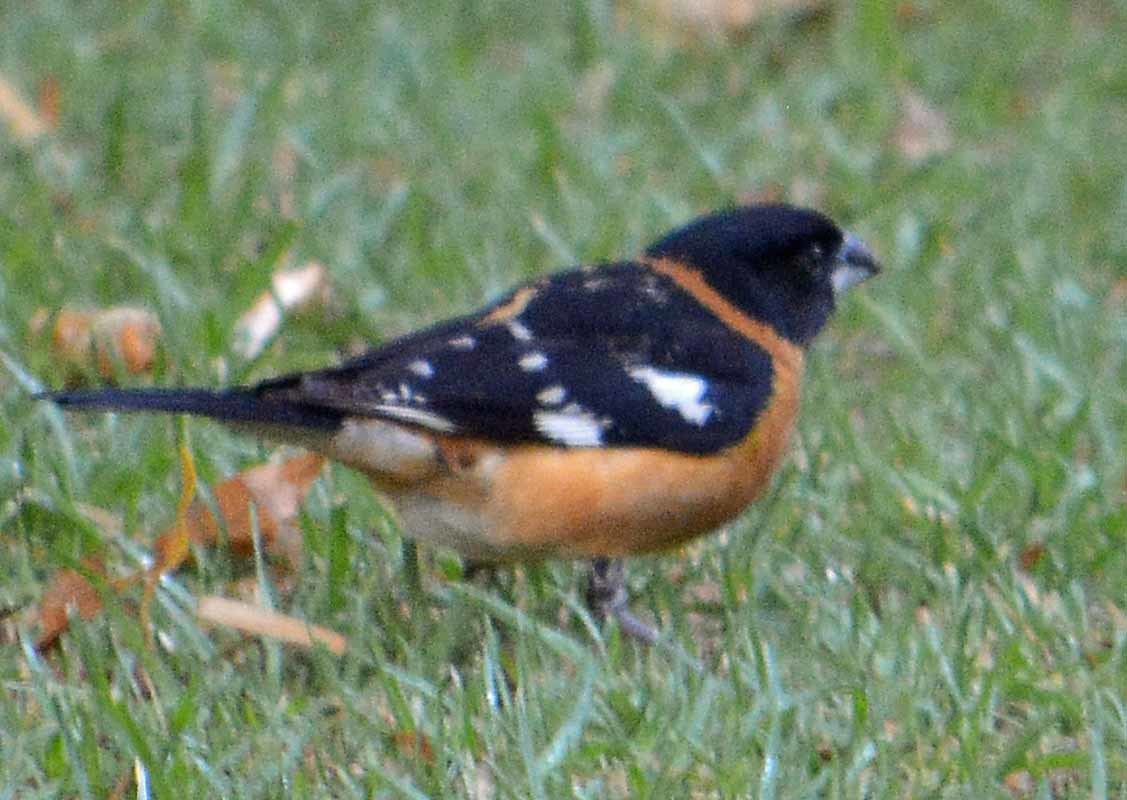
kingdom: Animalia
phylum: Chordata
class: Aves
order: Passeriformes
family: Cardinalidae
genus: Pheucticus
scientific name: Pheucticus melanocephalus
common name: Black-headed grosbeak
